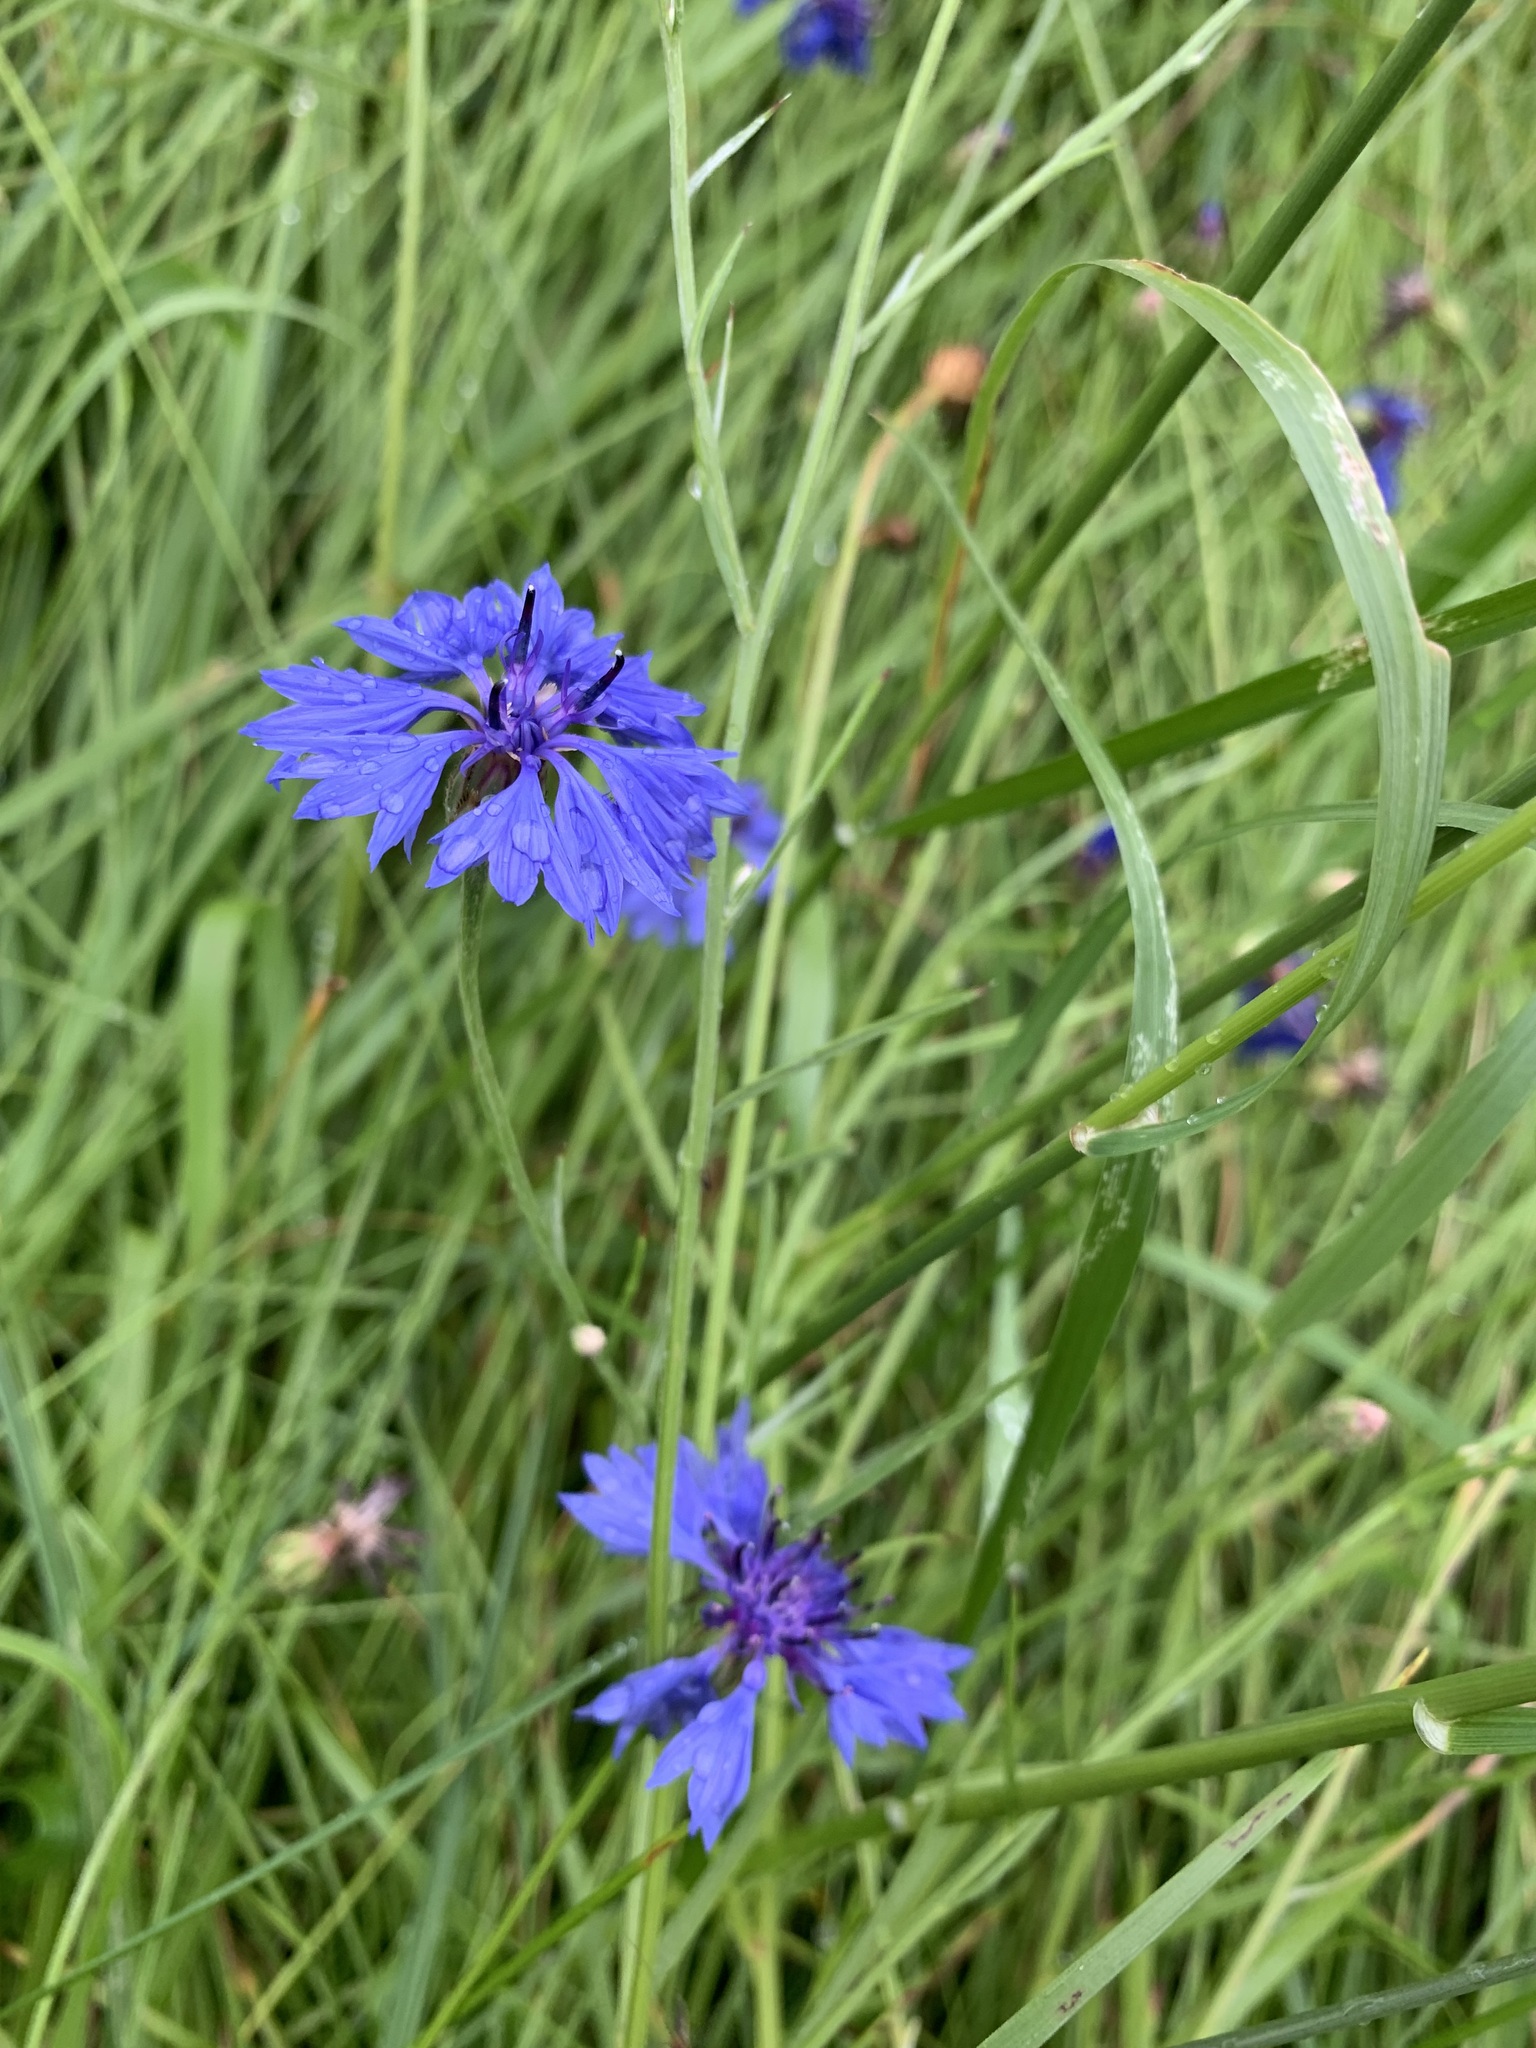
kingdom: Plantae
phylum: Tracheophyta
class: Magnoliopsida
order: Asterales
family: Asteraceae
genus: Centaurea
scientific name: Centaurea cyanus
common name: Cornflower
